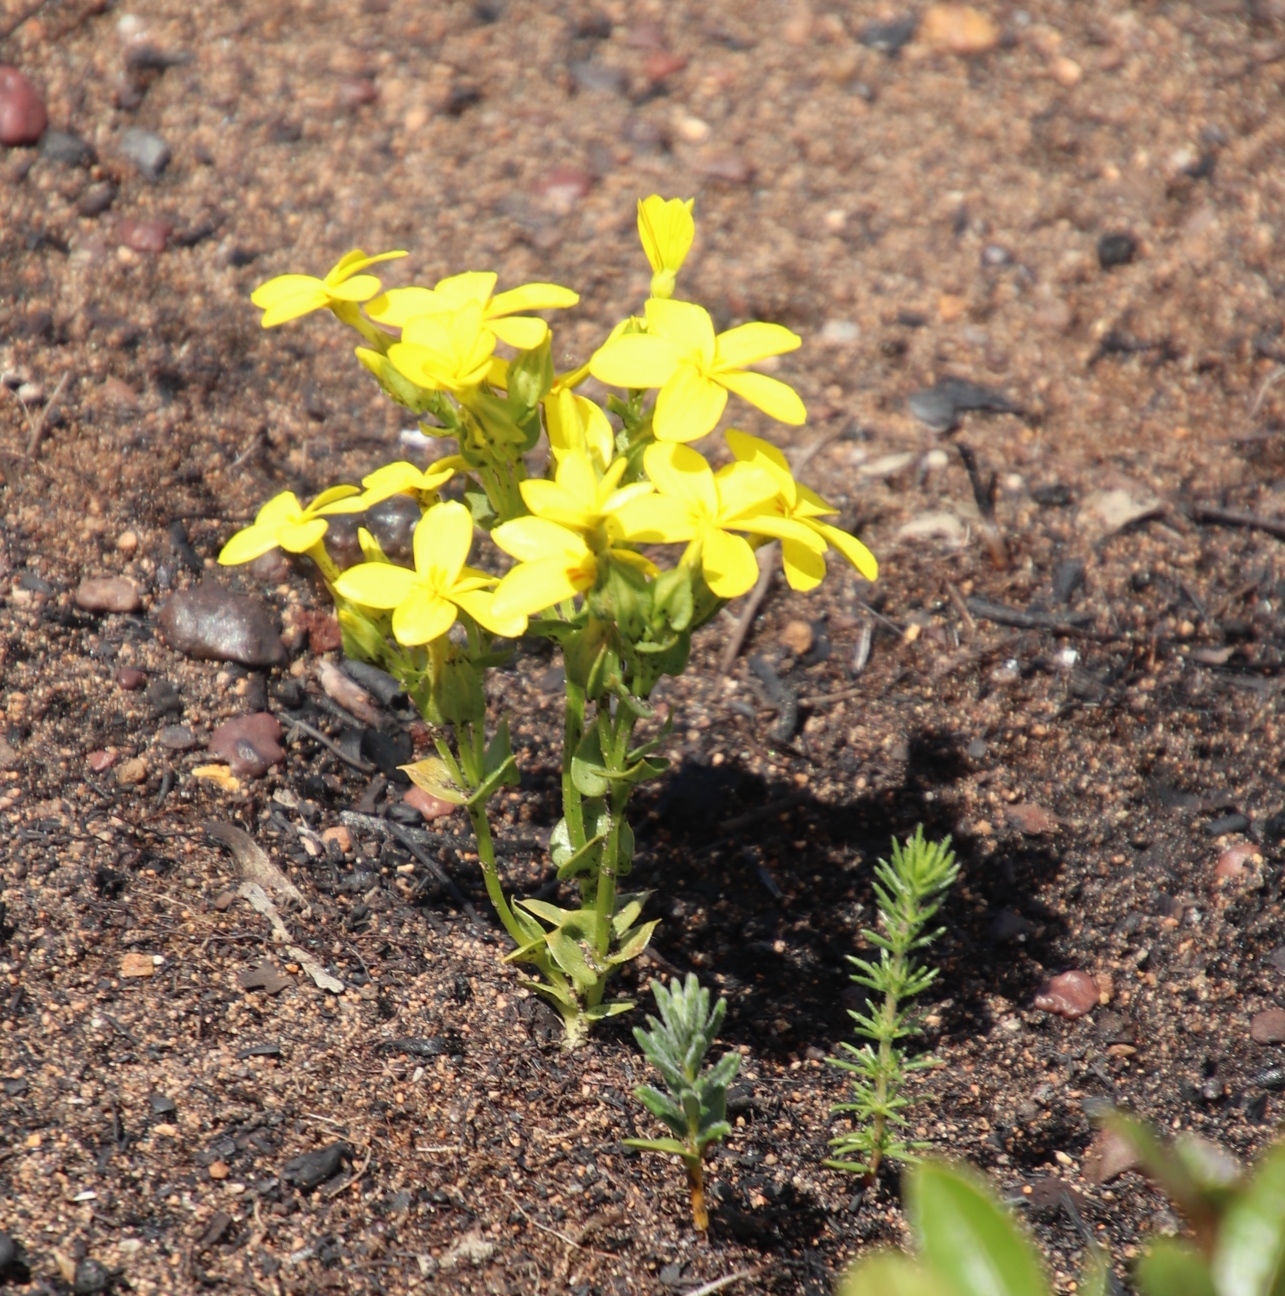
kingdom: Plantae
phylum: Tracheophyta
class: Magnoliopsida
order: Gentianales
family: Gentianaceae
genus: Sebaea
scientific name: Sebaea exacoides
